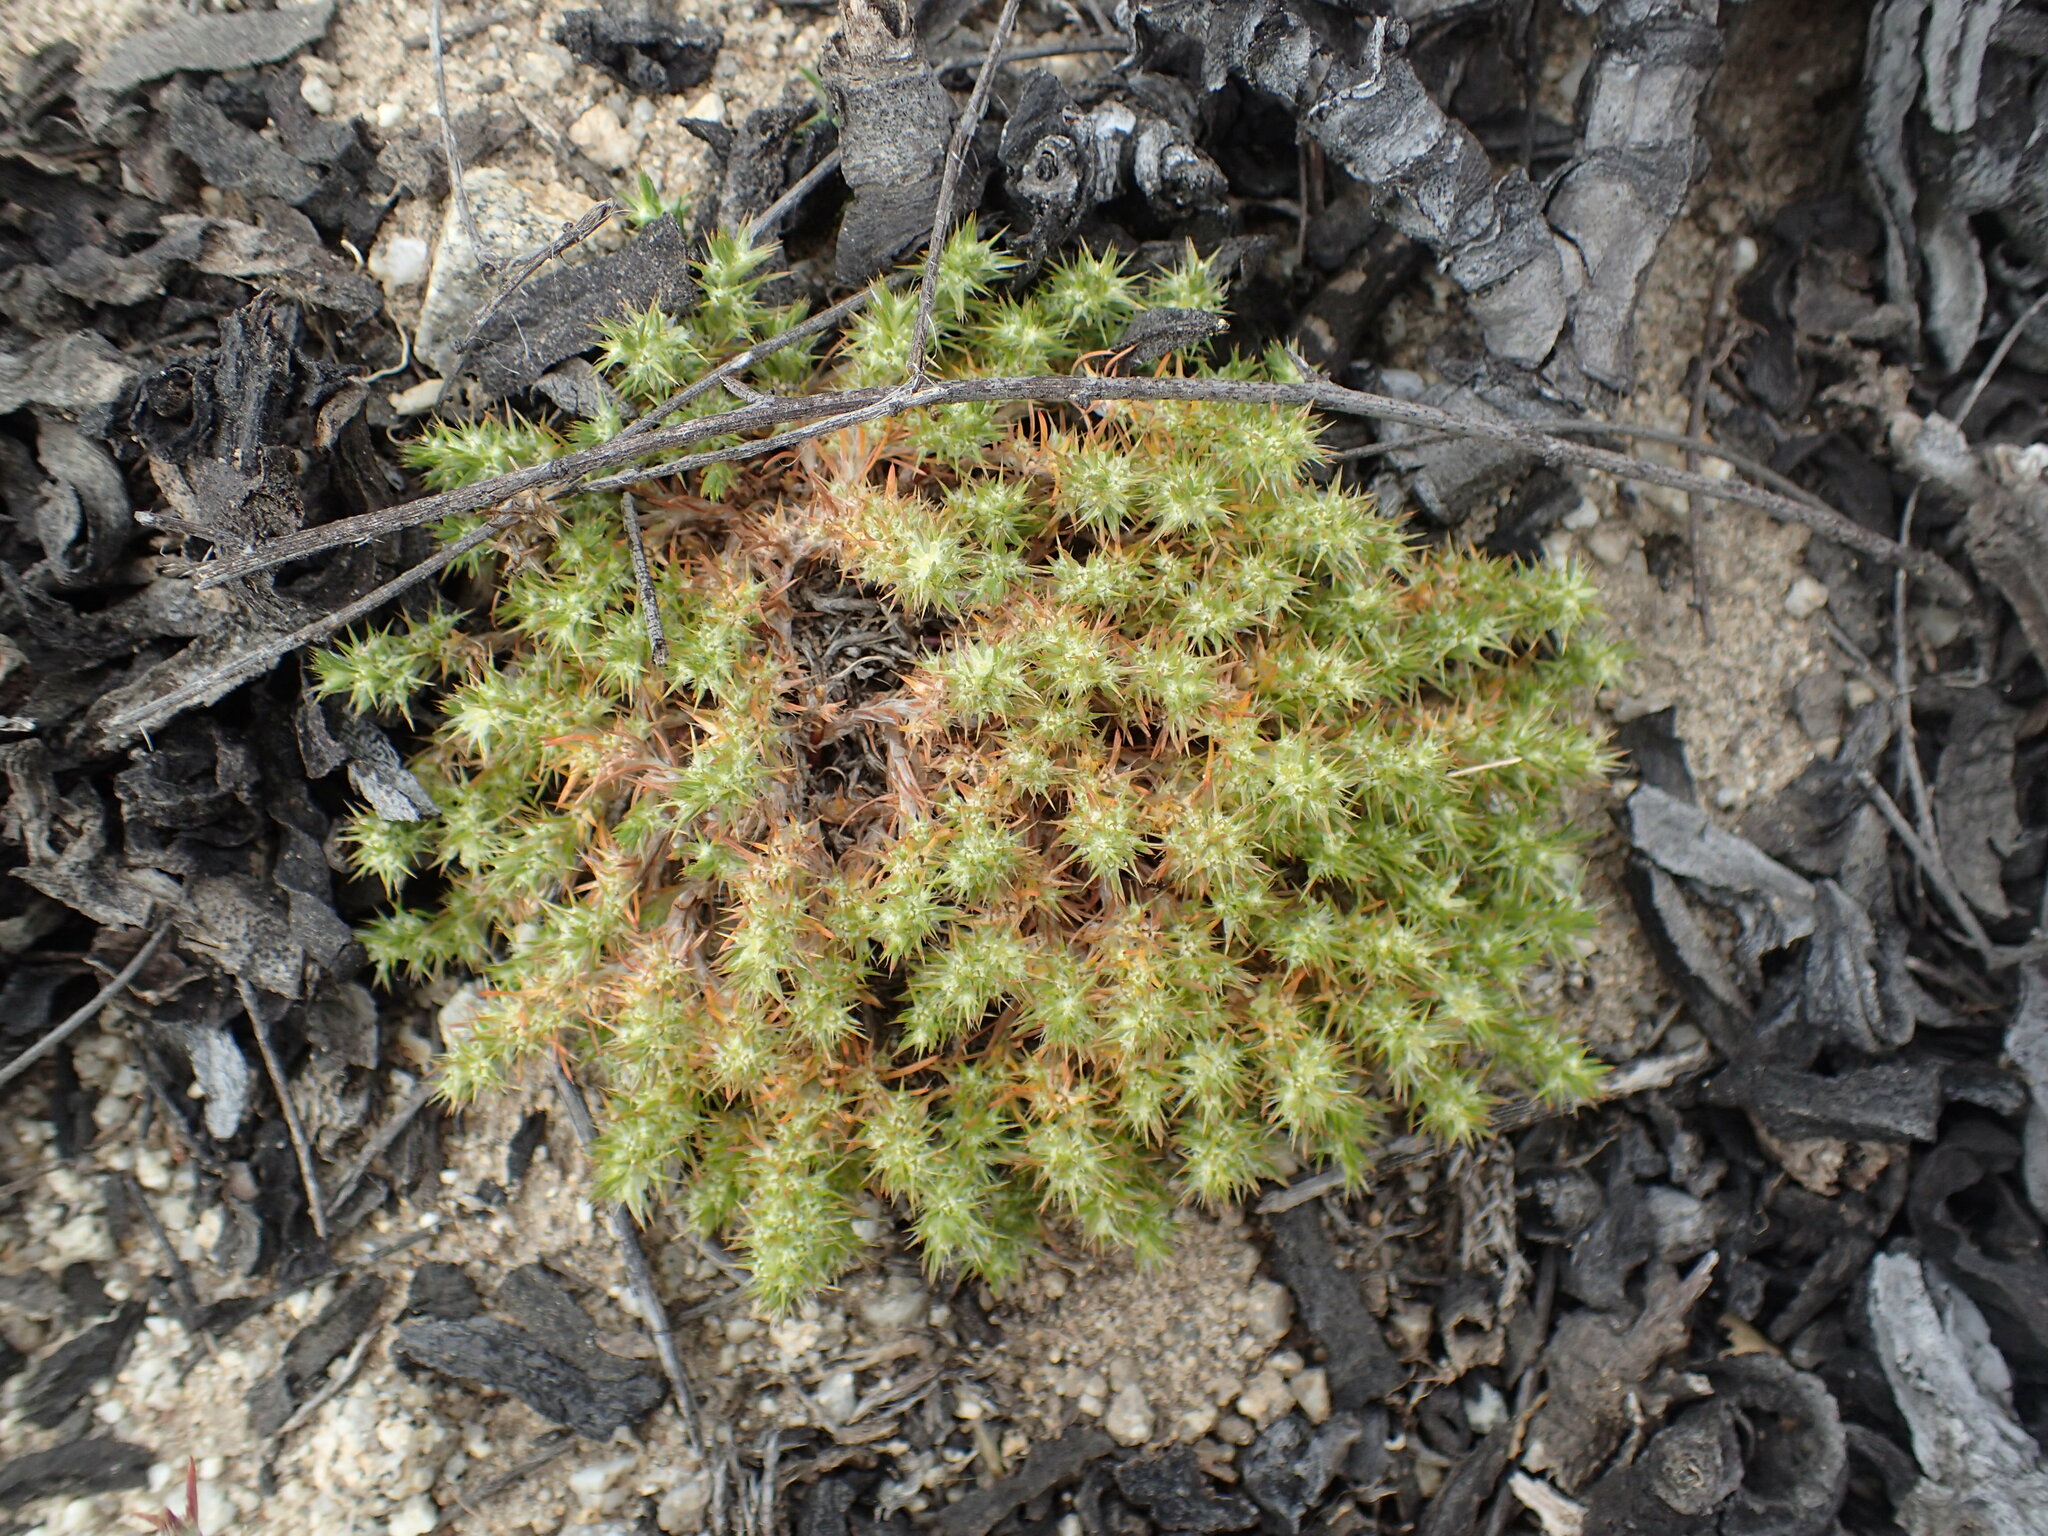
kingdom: Plantae
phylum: Tracheophyta
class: Magnoliopsida
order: Caryophyllales
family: Caryophyllaceae
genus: Cardionema
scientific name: Cardionema ramosissima
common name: Sandcarpet
